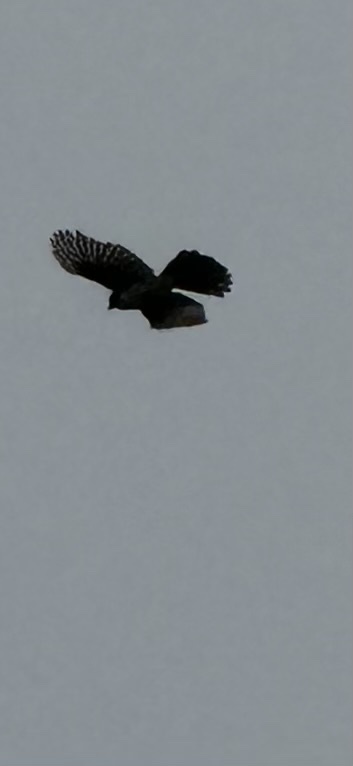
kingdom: Animalia
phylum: Chordata
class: Aves
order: Accipitriformes
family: Accipitridae
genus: Accipiter
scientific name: Accipiter
